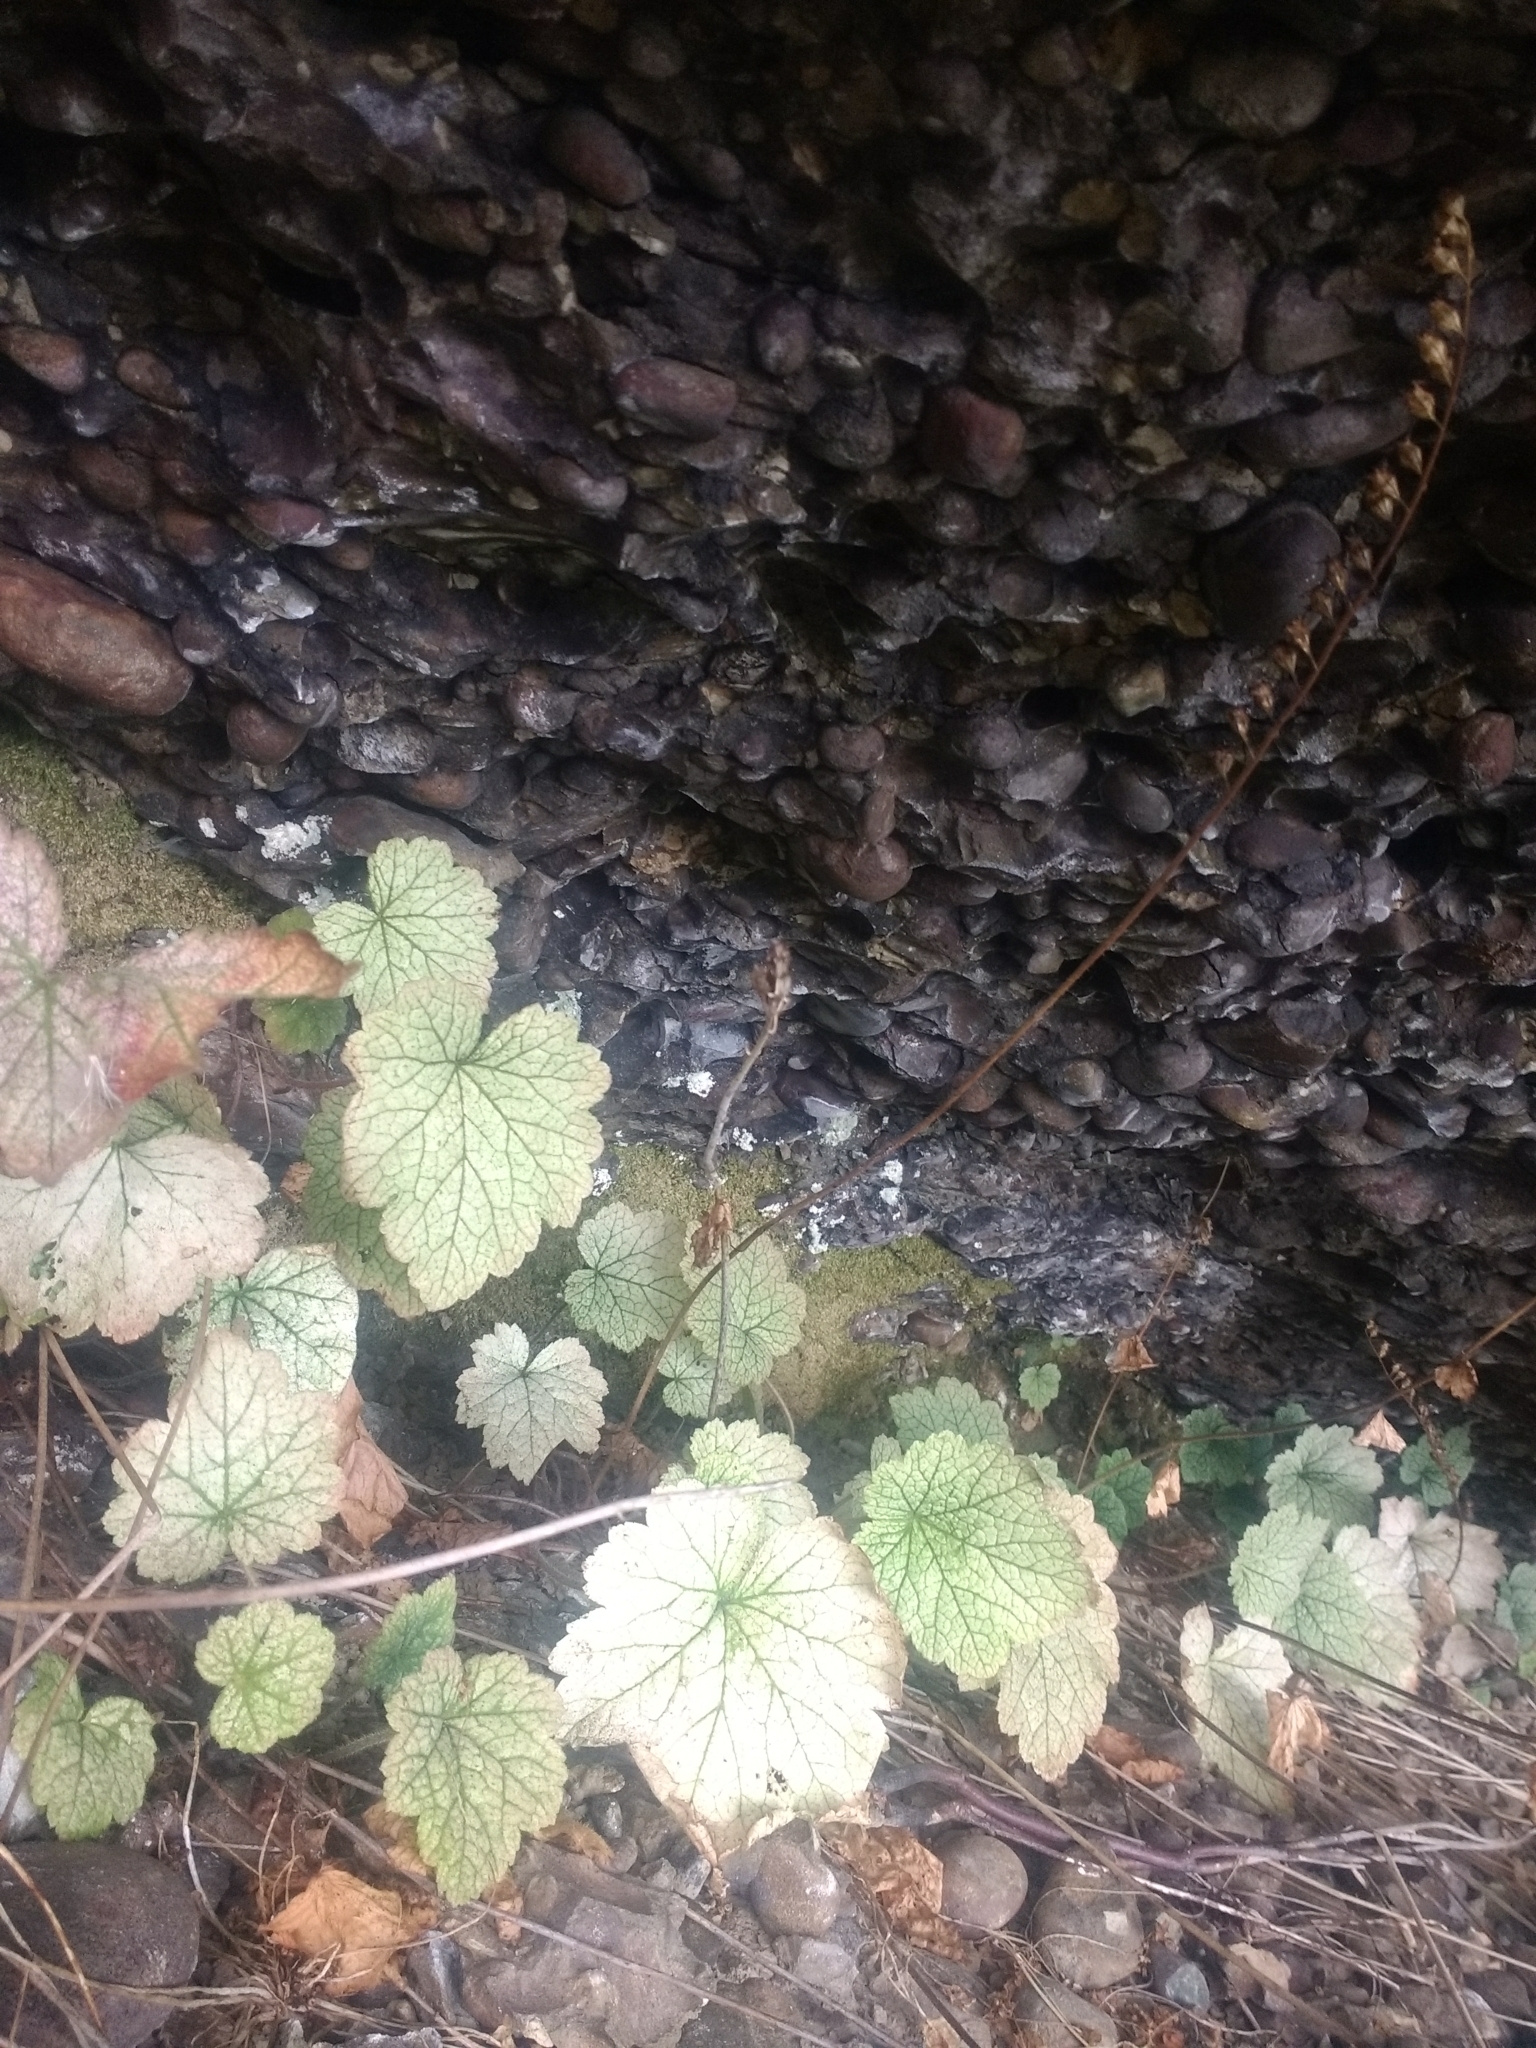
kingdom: Plantae
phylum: Tracheophyta
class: Magnoliopsida
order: Saxifragales
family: Saxifragaceae
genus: Tellima
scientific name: Tellima grandiflora
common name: Fringecups
